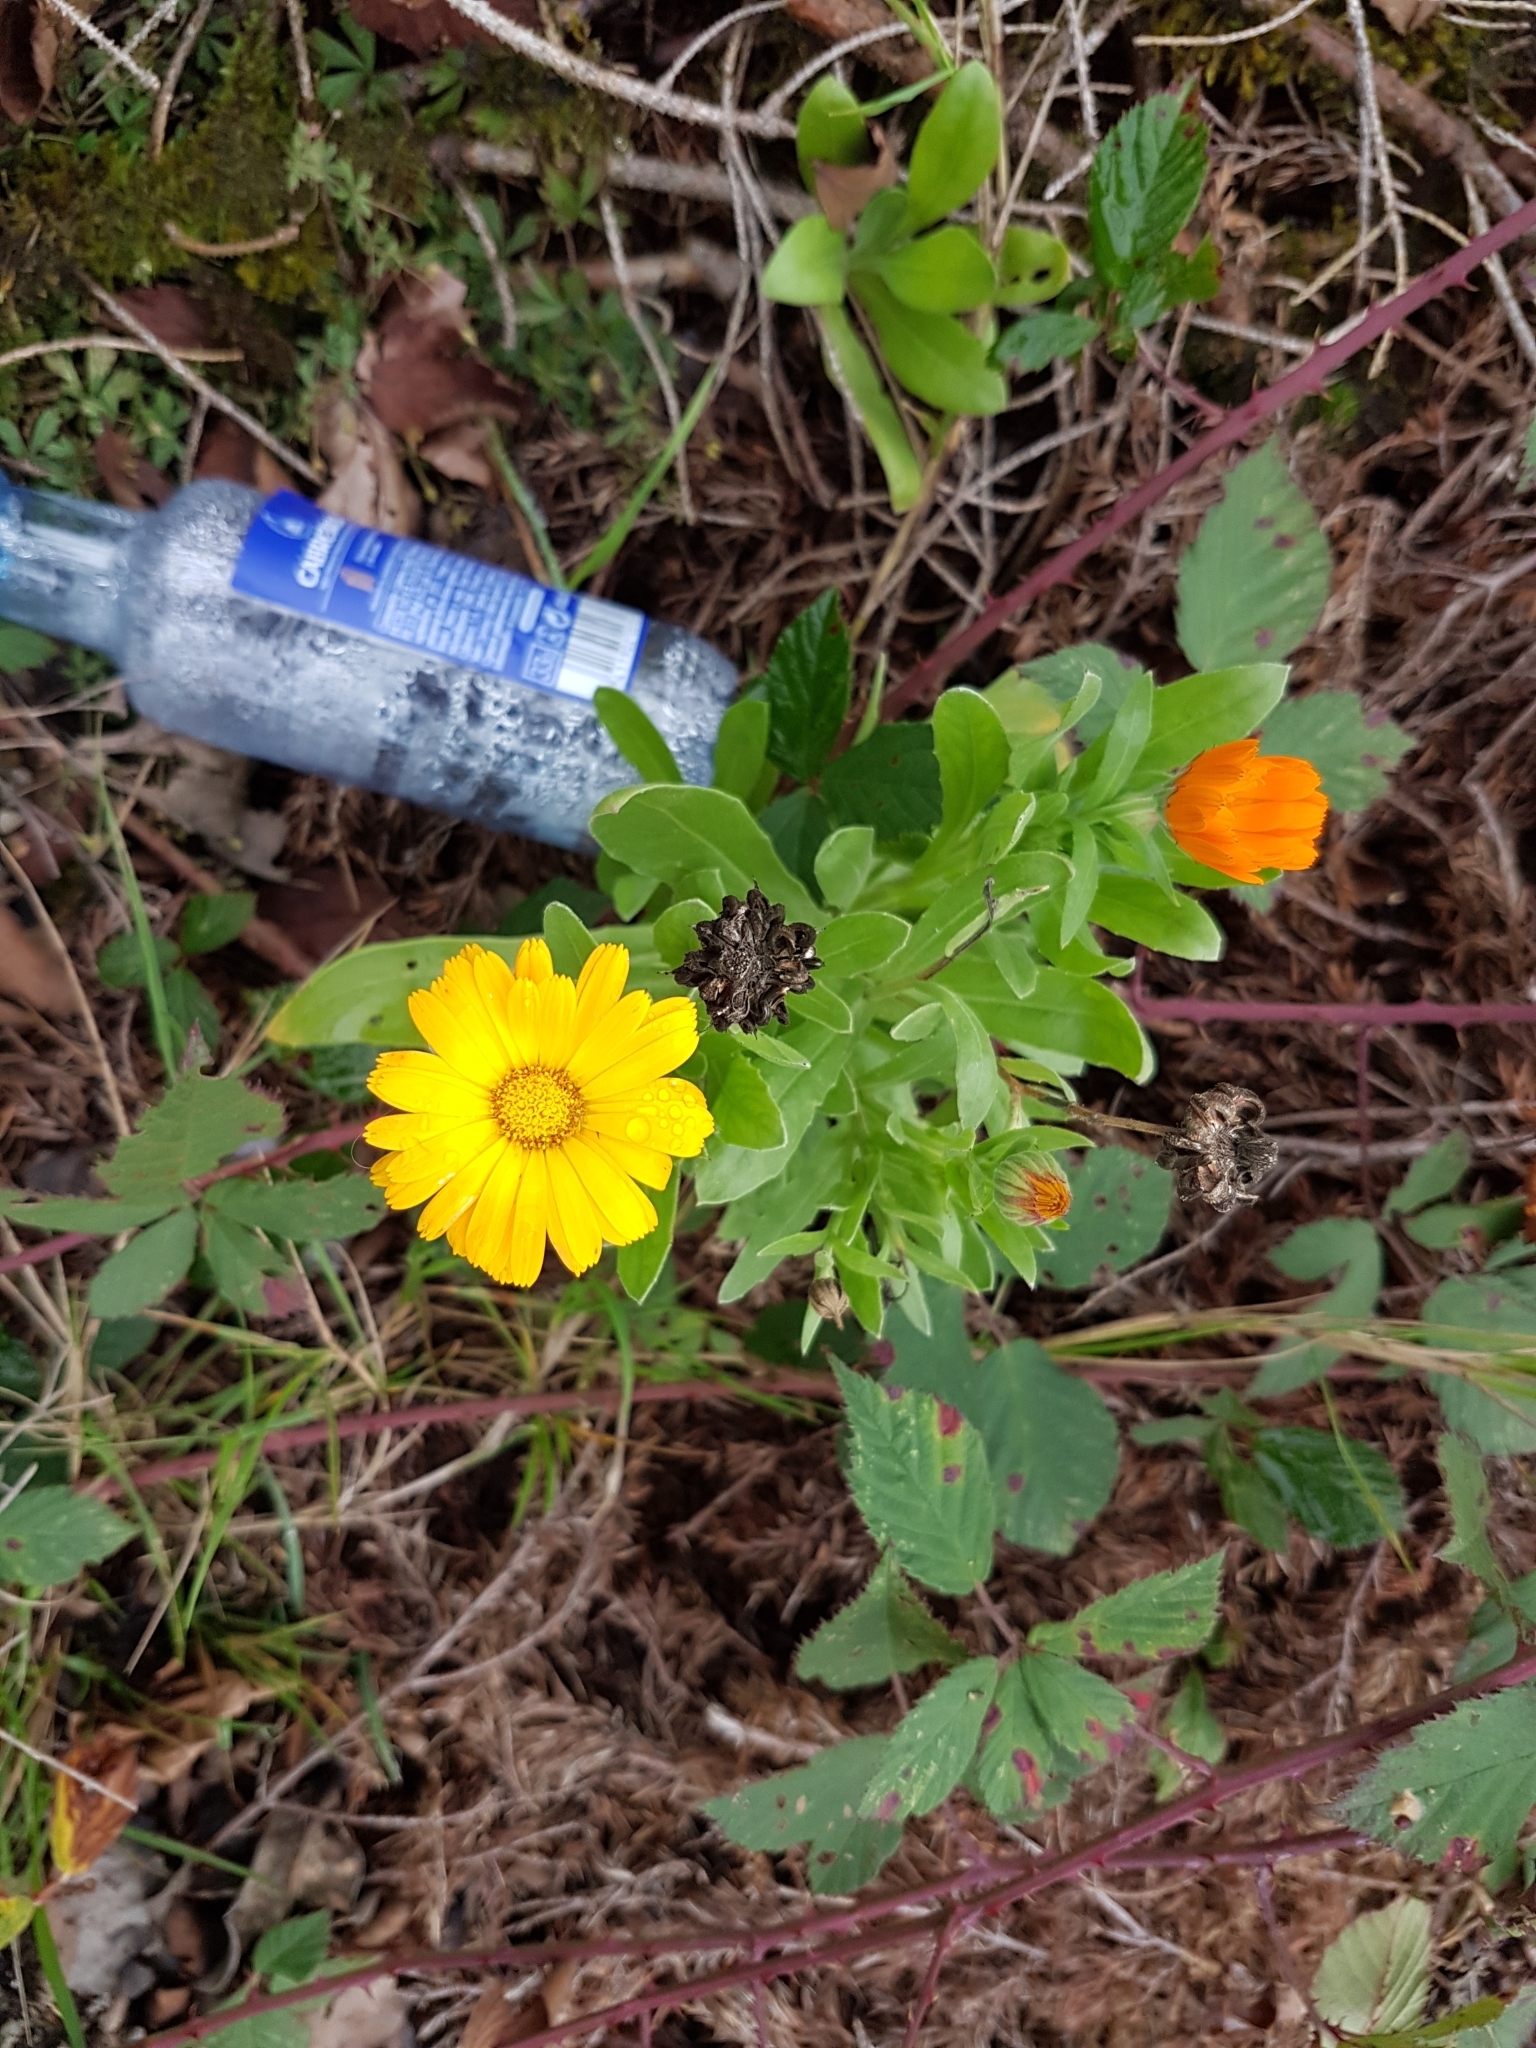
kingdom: Plantae
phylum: Tracheophyta
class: Magnoliopsida
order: Asterales
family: Asteraceae
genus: Calendula
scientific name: Calendula officinalis
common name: Pot marigold
